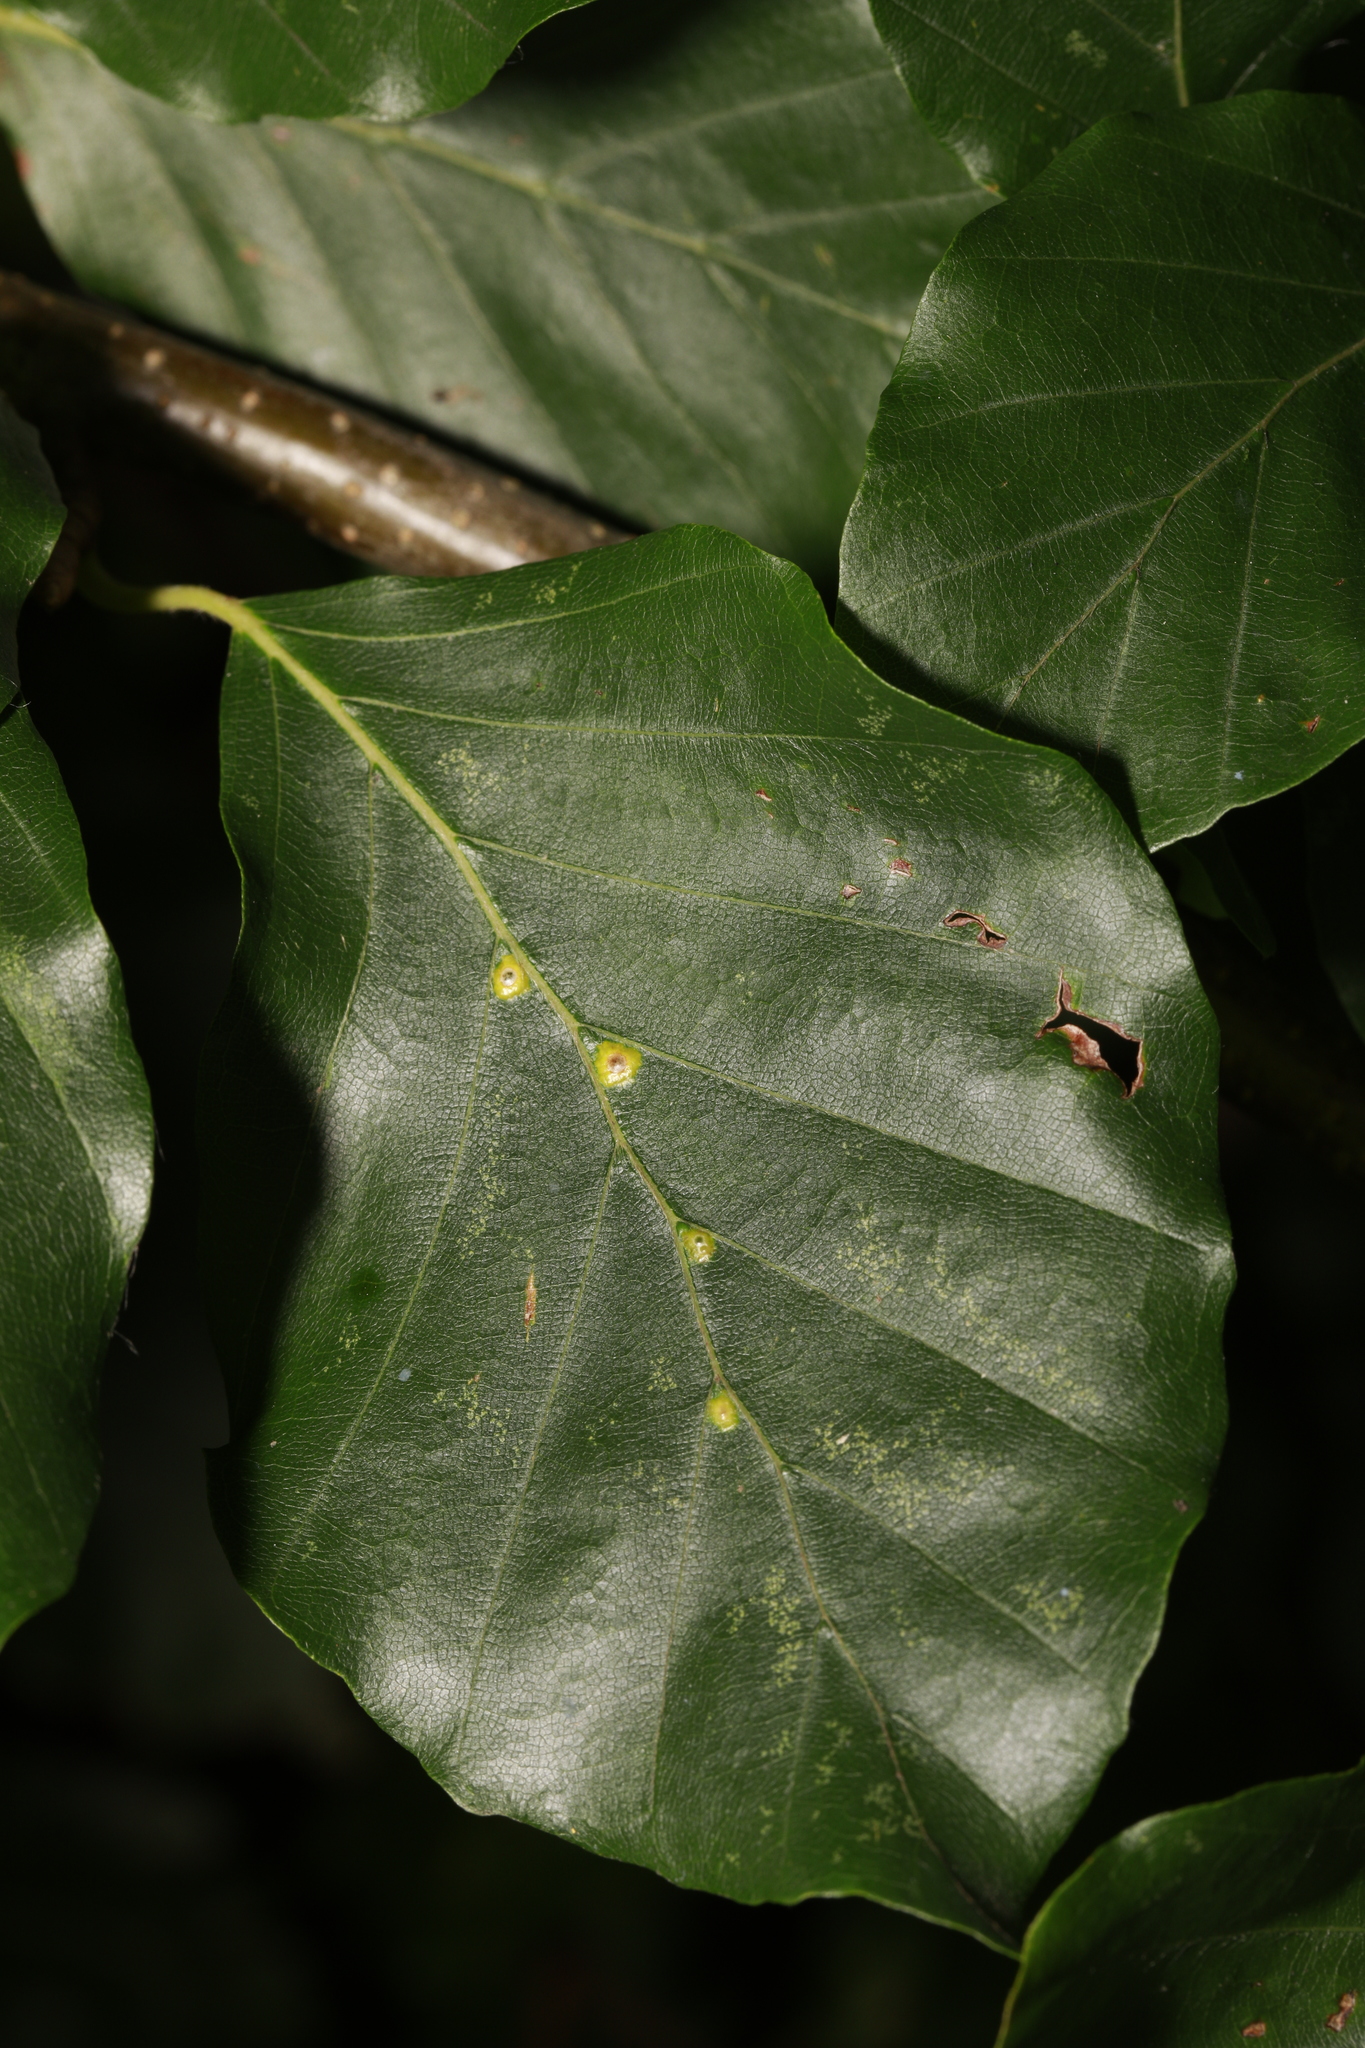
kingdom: Animalia
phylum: Arthropoda
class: Insecta
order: Diptera
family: Cecidomyiidae
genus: Hartigiola
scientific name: Hartigiola annulipes
